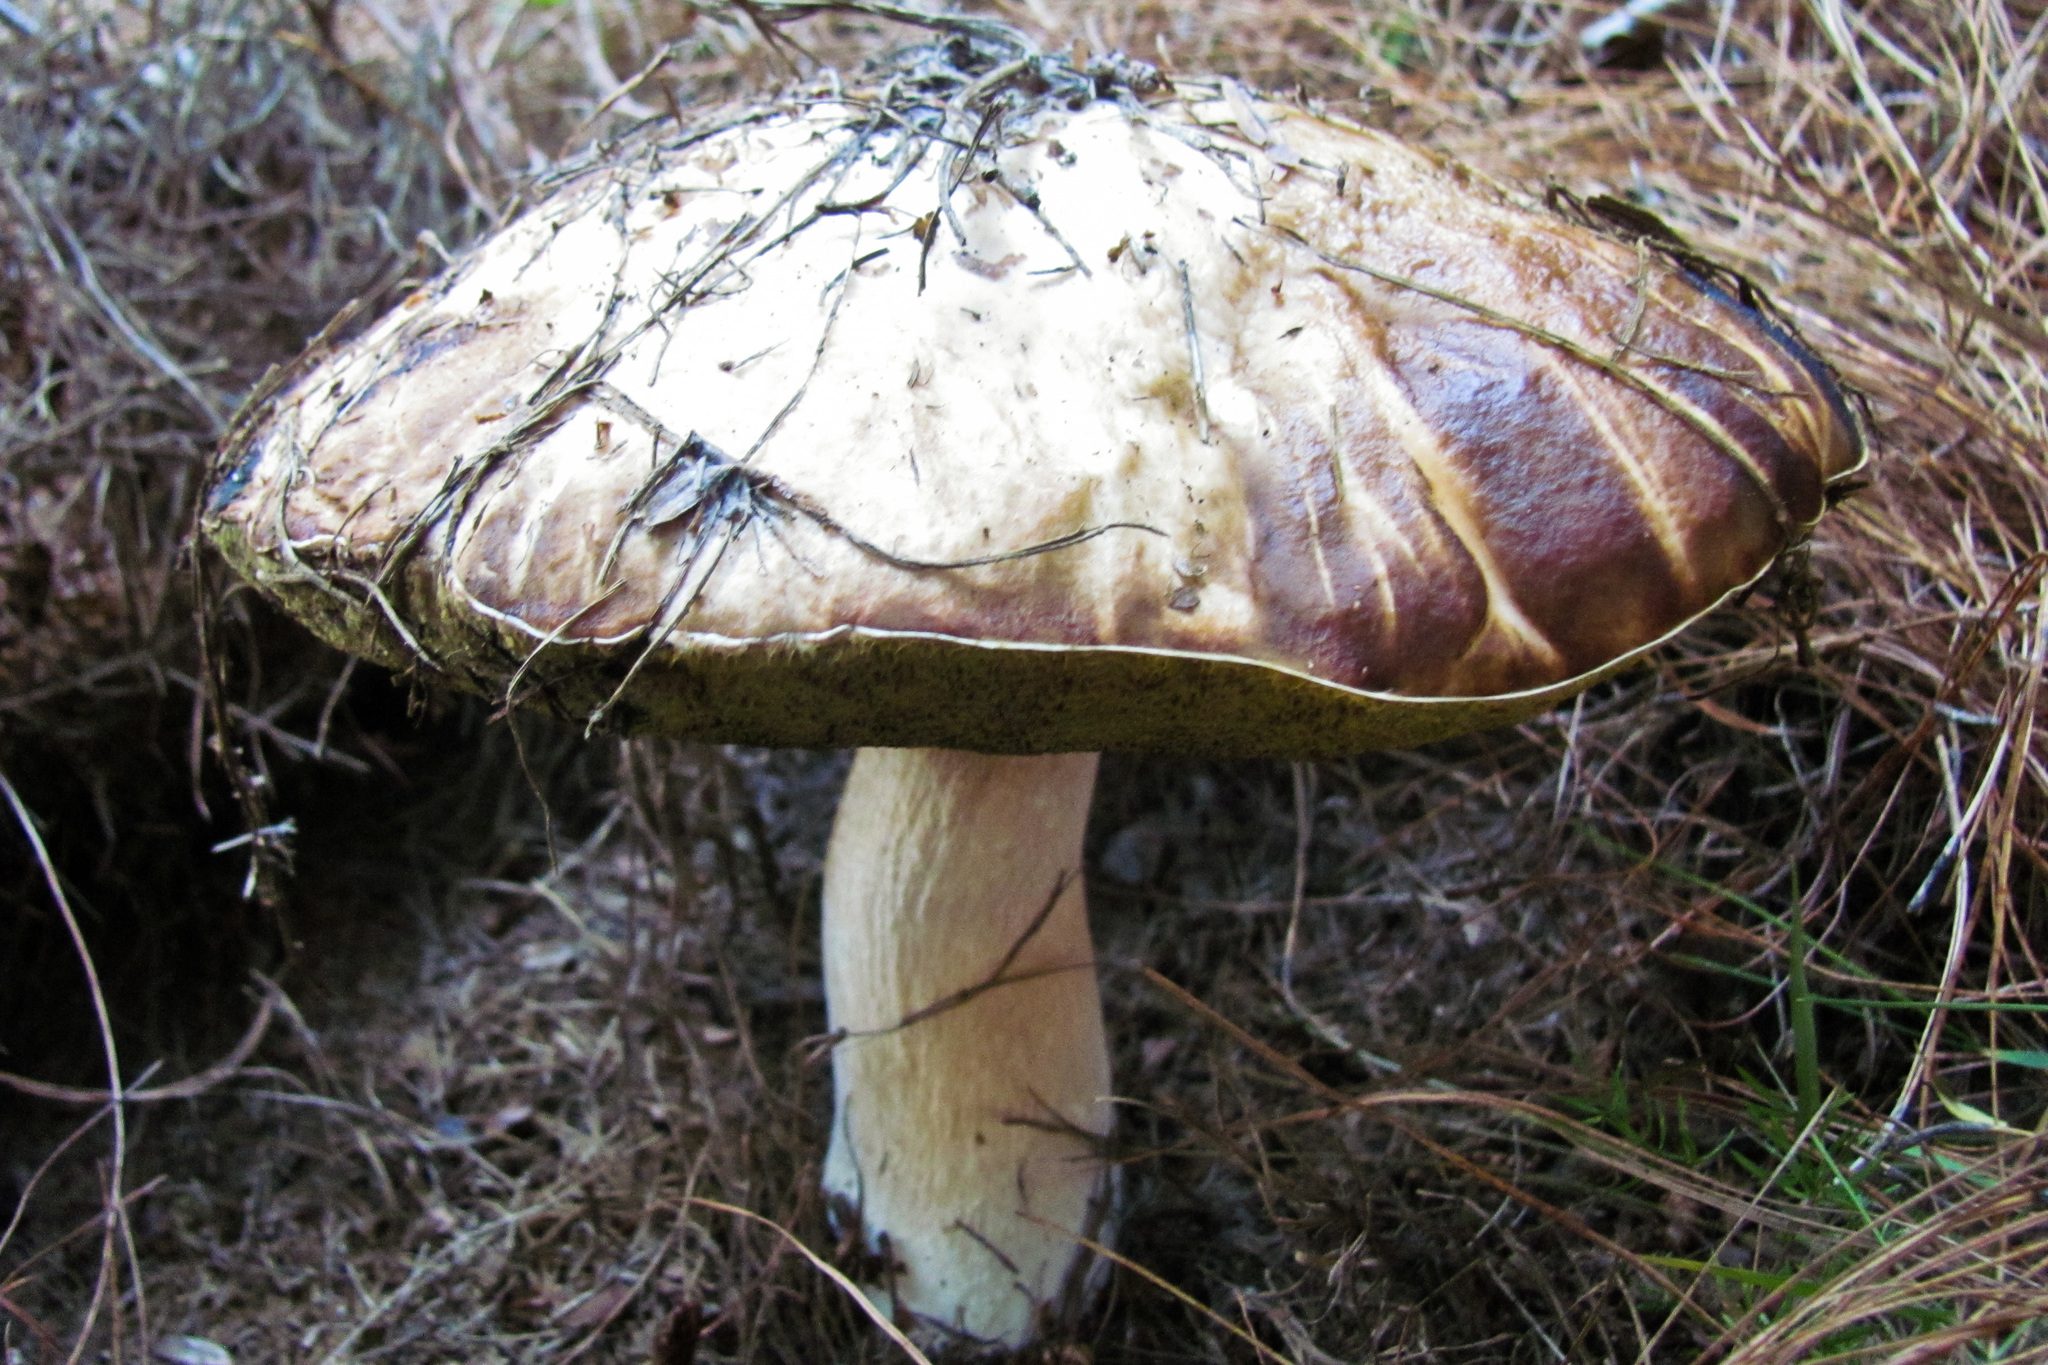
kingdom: Fungi
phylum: Basidiomycota
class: Agaricomycetes
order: Boletales
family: Boletaceae
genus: Boletus
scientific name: Boletus edulis
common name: Cep
